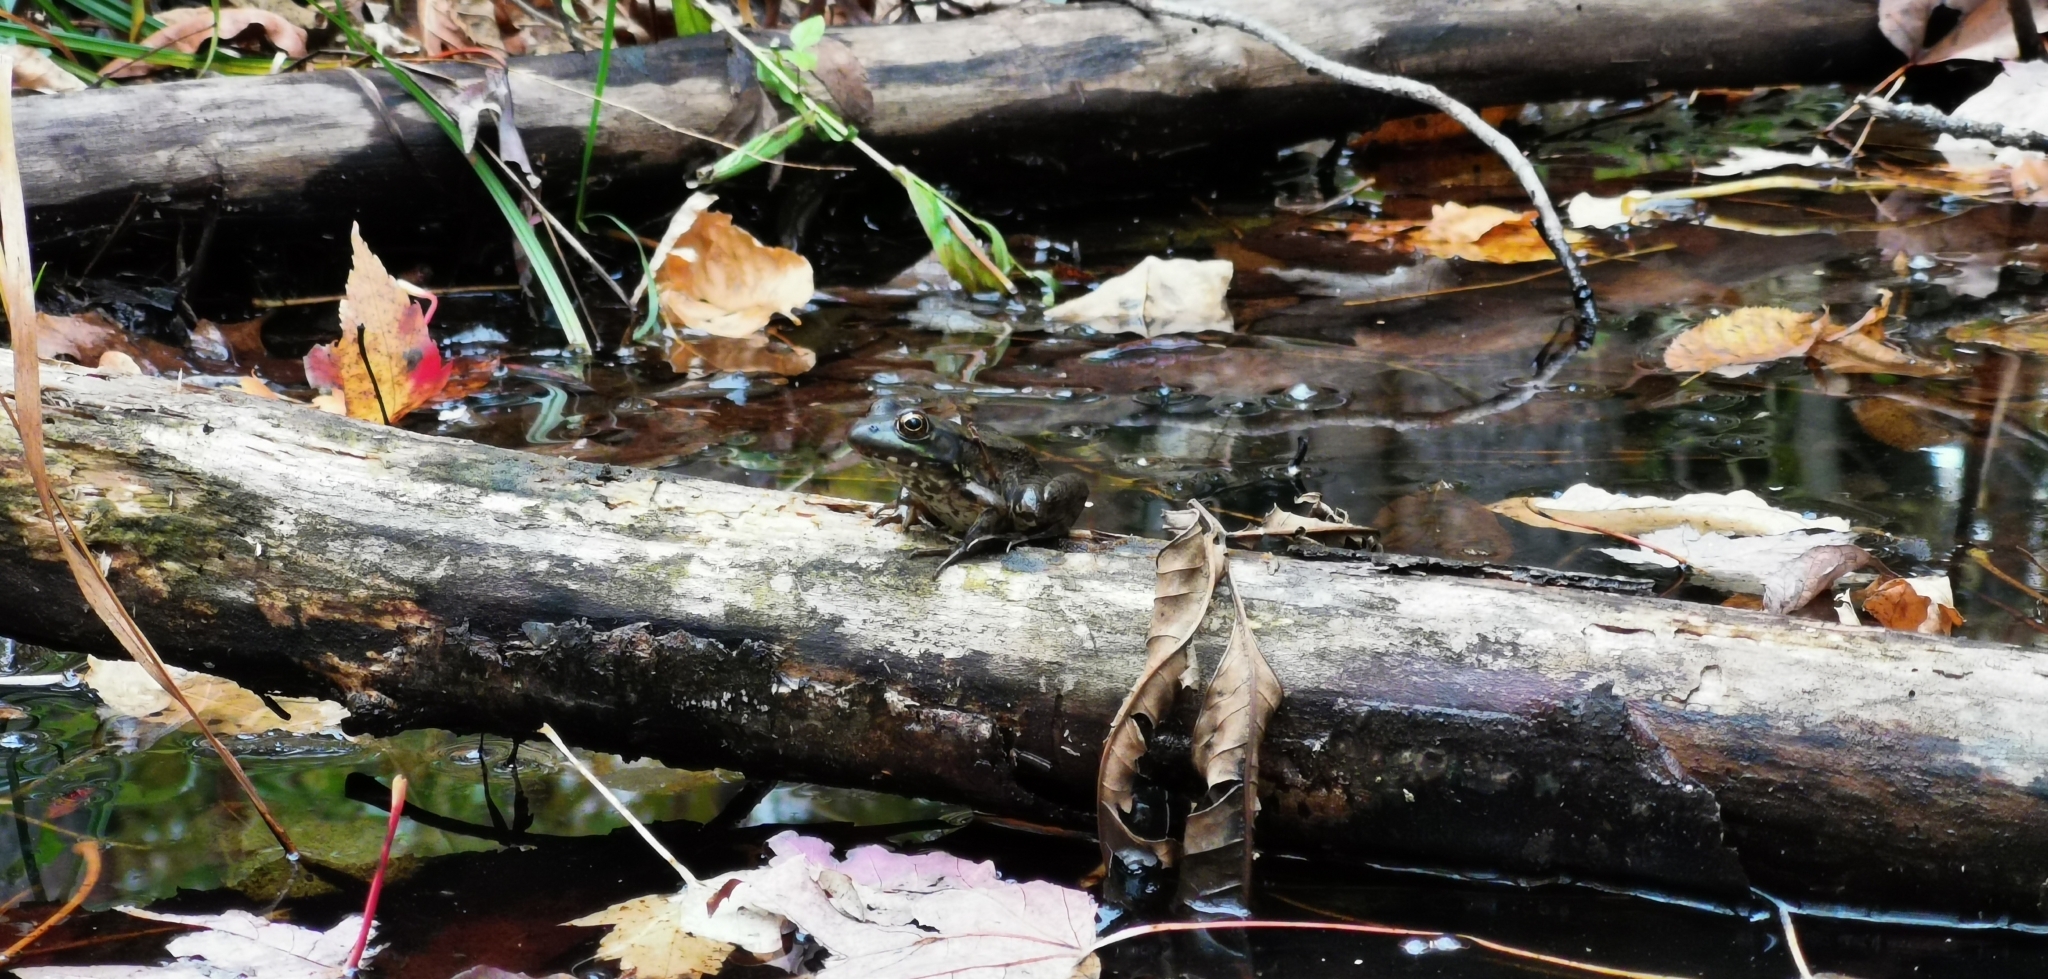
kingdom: Animalia
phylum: Chordata
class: Amphibia
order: Anura
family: Ranidae
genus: Lithobates
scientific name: Lithobates clamitans
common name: Green frog
